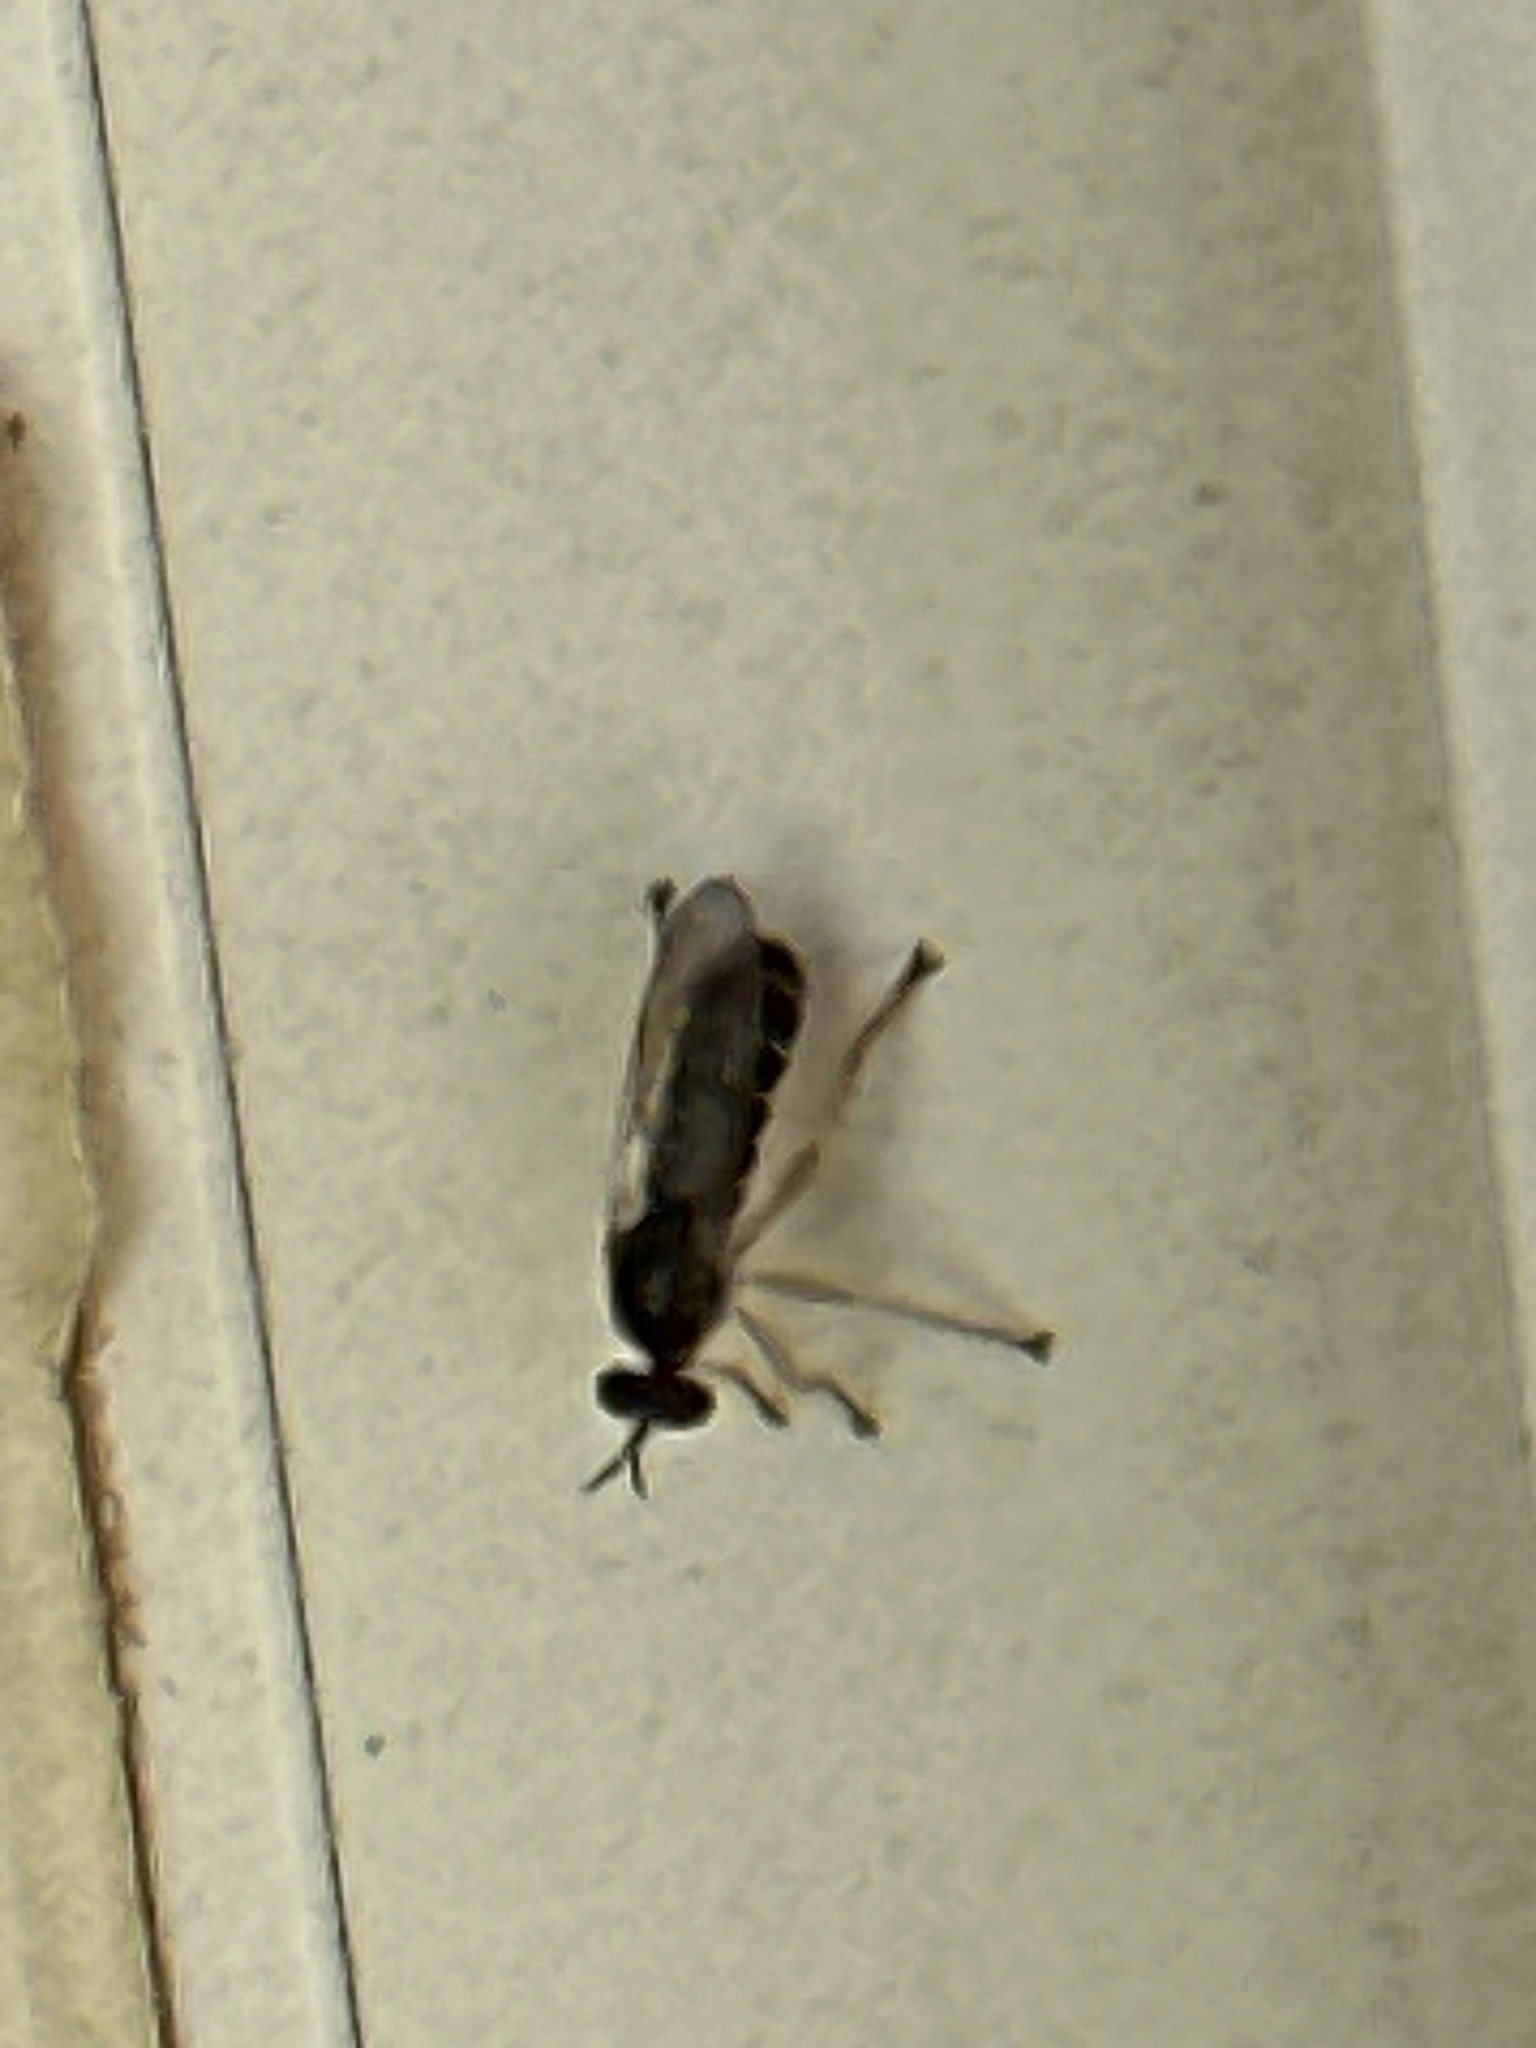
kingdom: Animalia
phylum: Arthropoda
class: Insecta
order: Diptera
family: Asilidae
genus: Atomosia
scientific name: Atomosia rufipes
